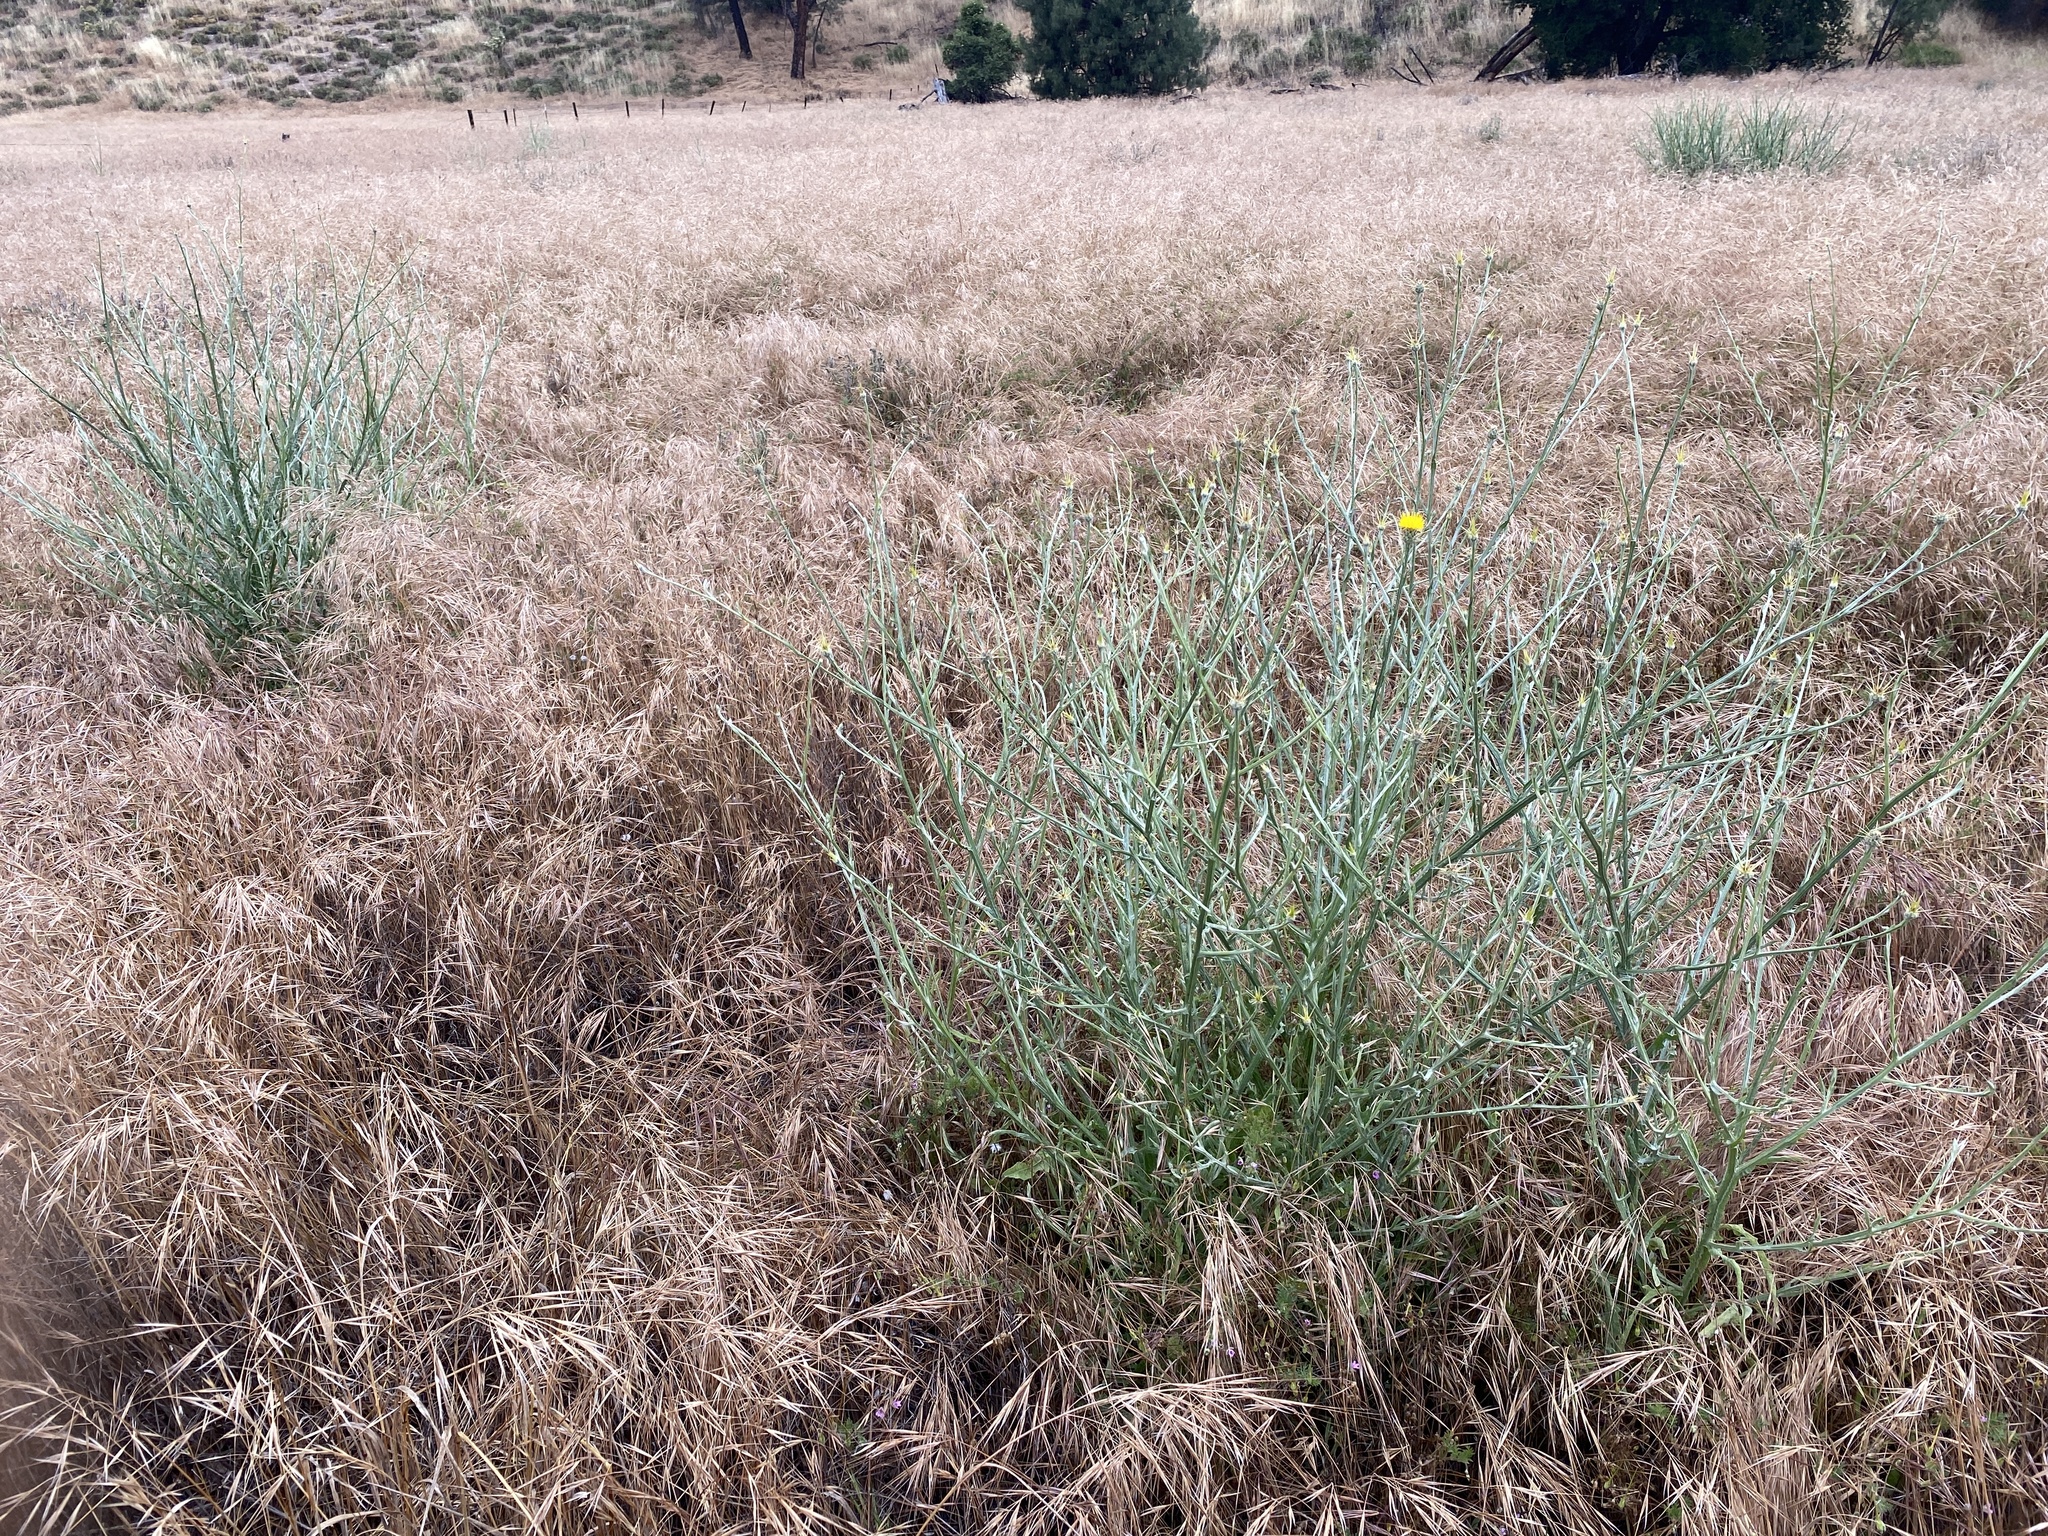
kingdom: Plantae
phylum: Tracheophyta
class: Magnoliopsida
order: Asterales
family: Asteraceae
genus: Centaurea
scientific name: Centaurea solstitialis
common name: Yellow star-thistle
